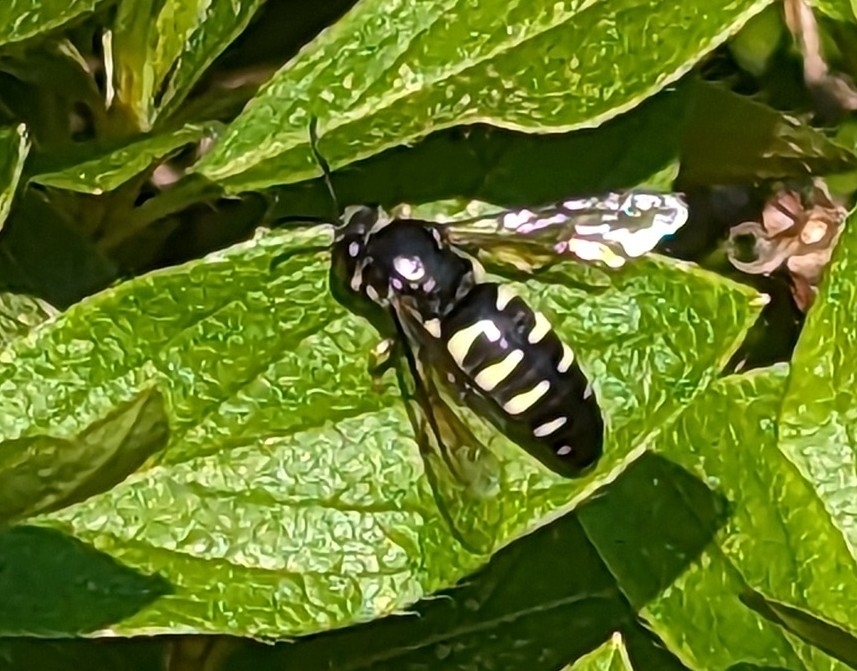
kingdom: Animalia
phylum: Arthropoda
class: Insecta
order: Hymenoptera
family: Crabronidae
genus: Bicyrtes
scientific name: Bicyrtes quadrifasciatus
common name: Four-banded stink bug hunter wasp
